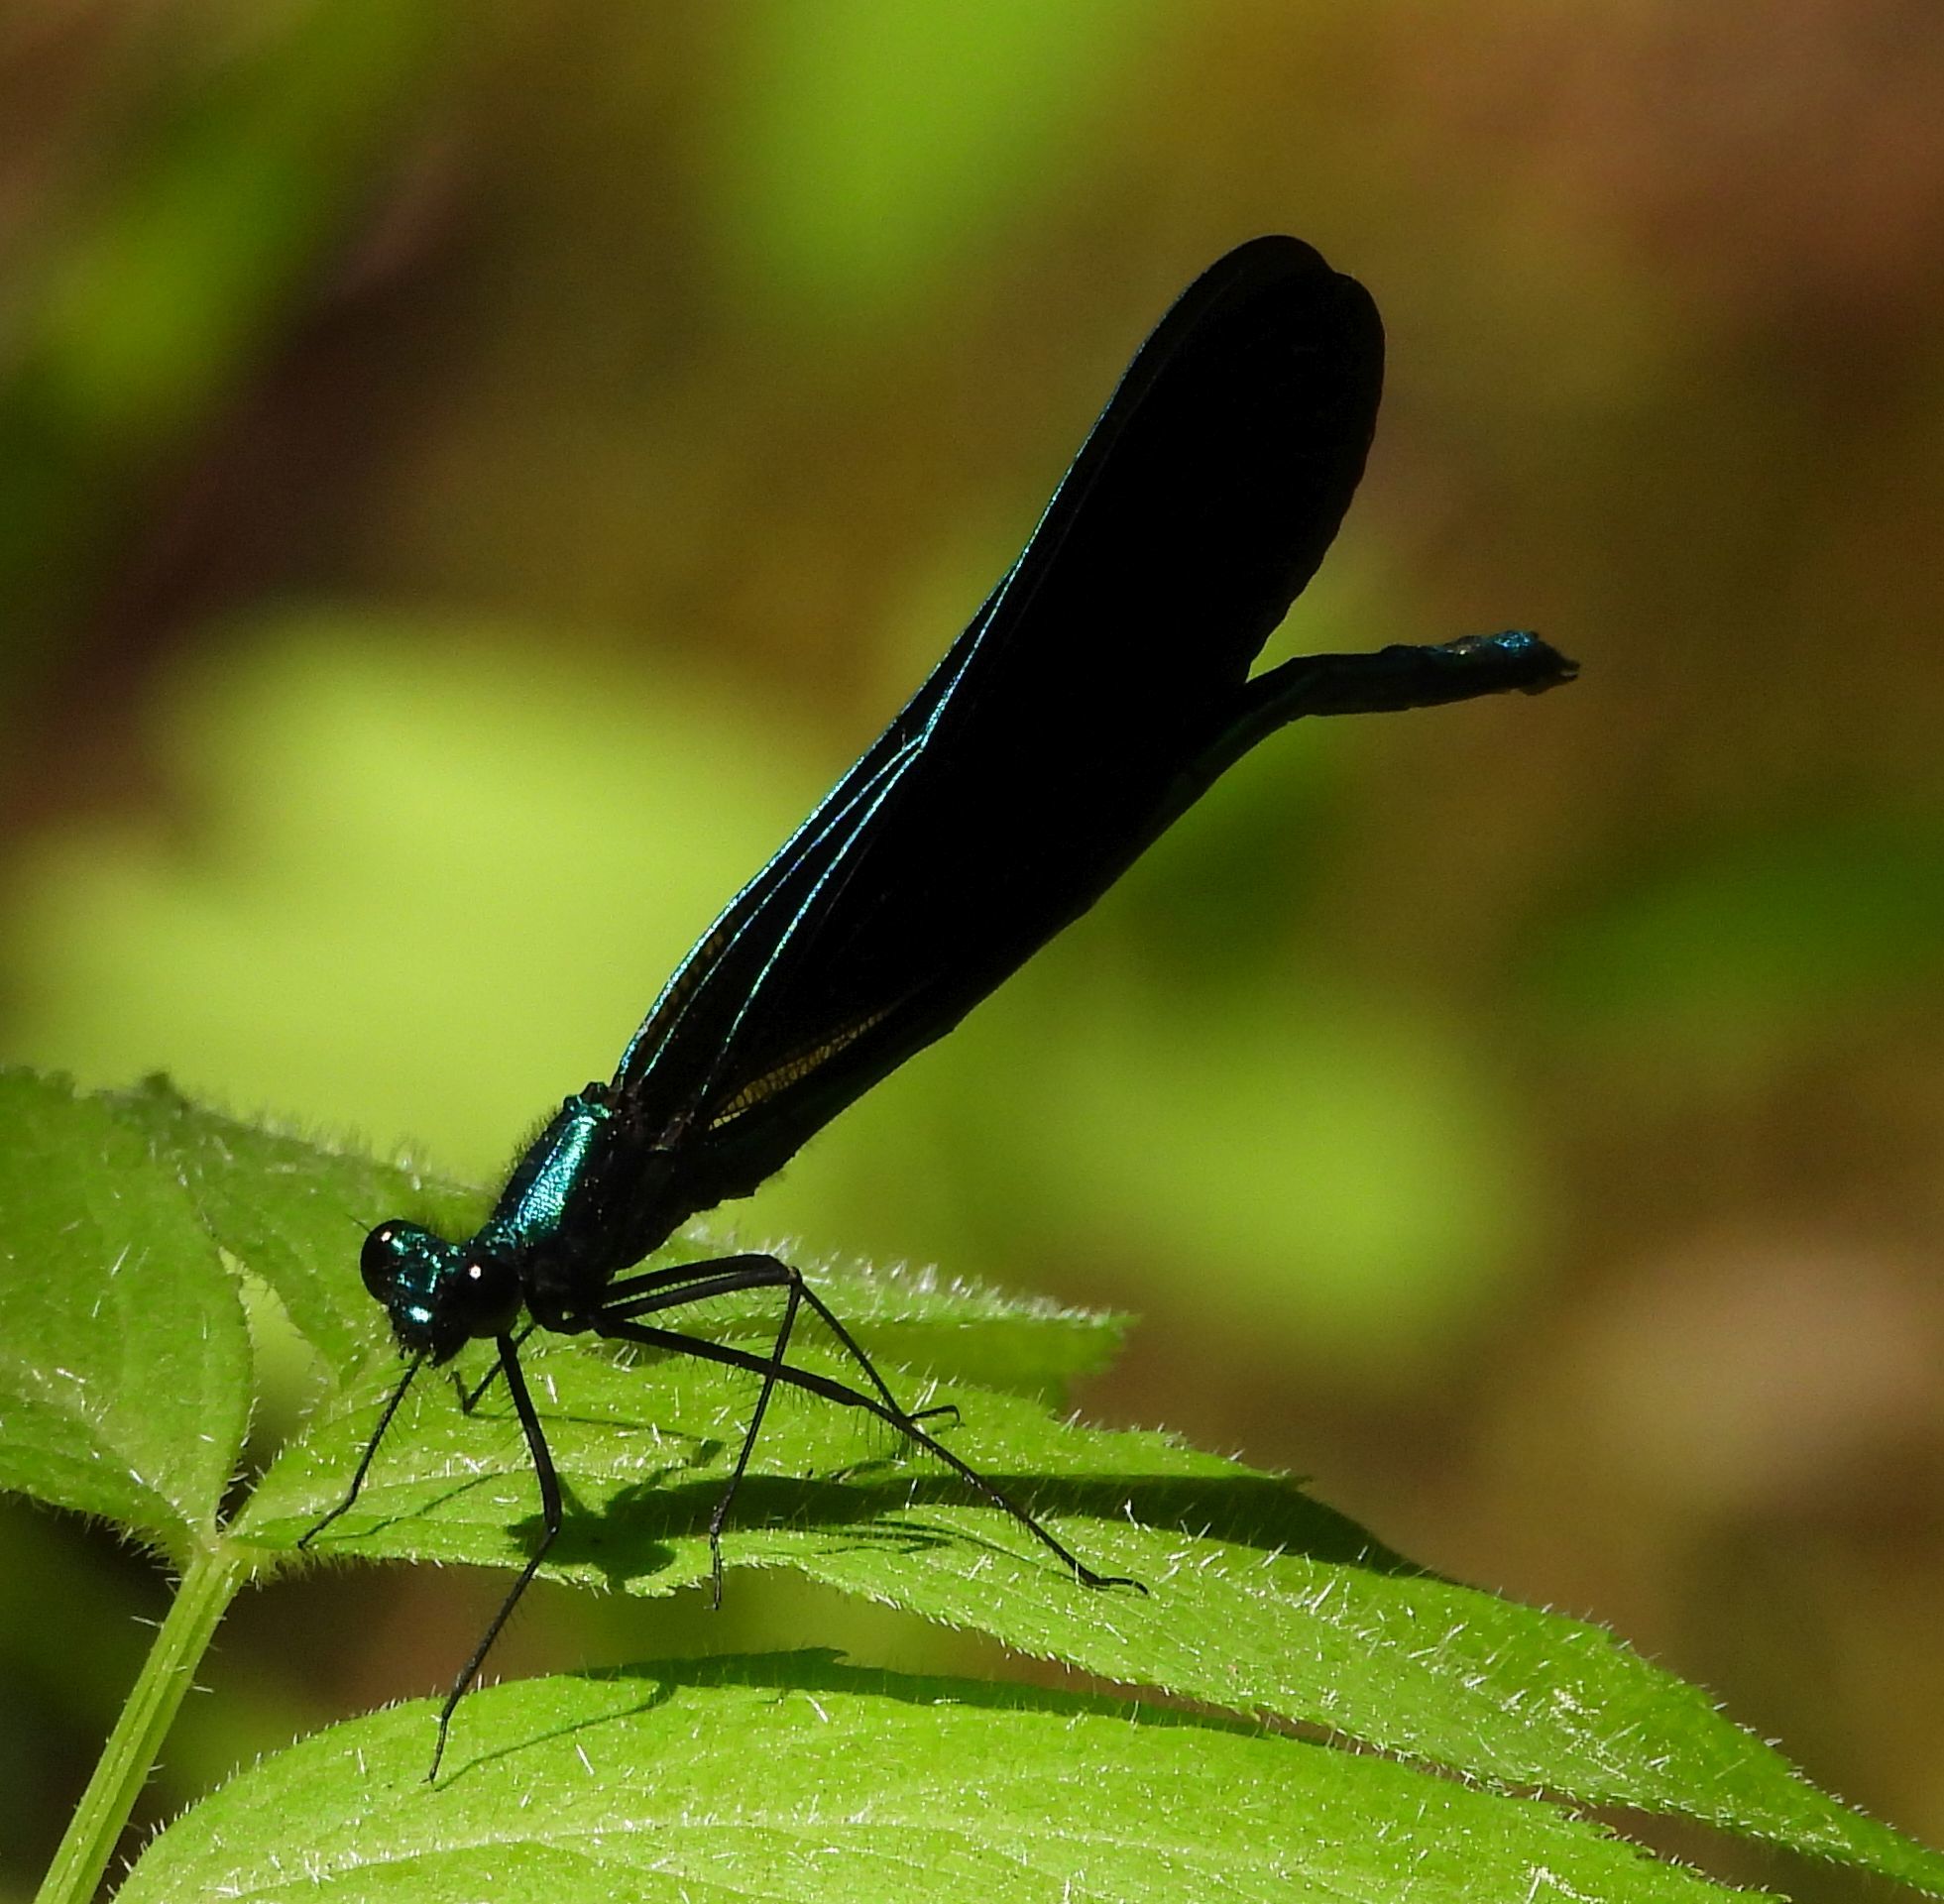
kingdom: Animalia
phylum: Arthropoda
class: Insecta
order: Odonata
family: Calopterygidae
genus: Calopteryx
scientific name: Calopteryx maculata
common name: Ebony jewelwing
